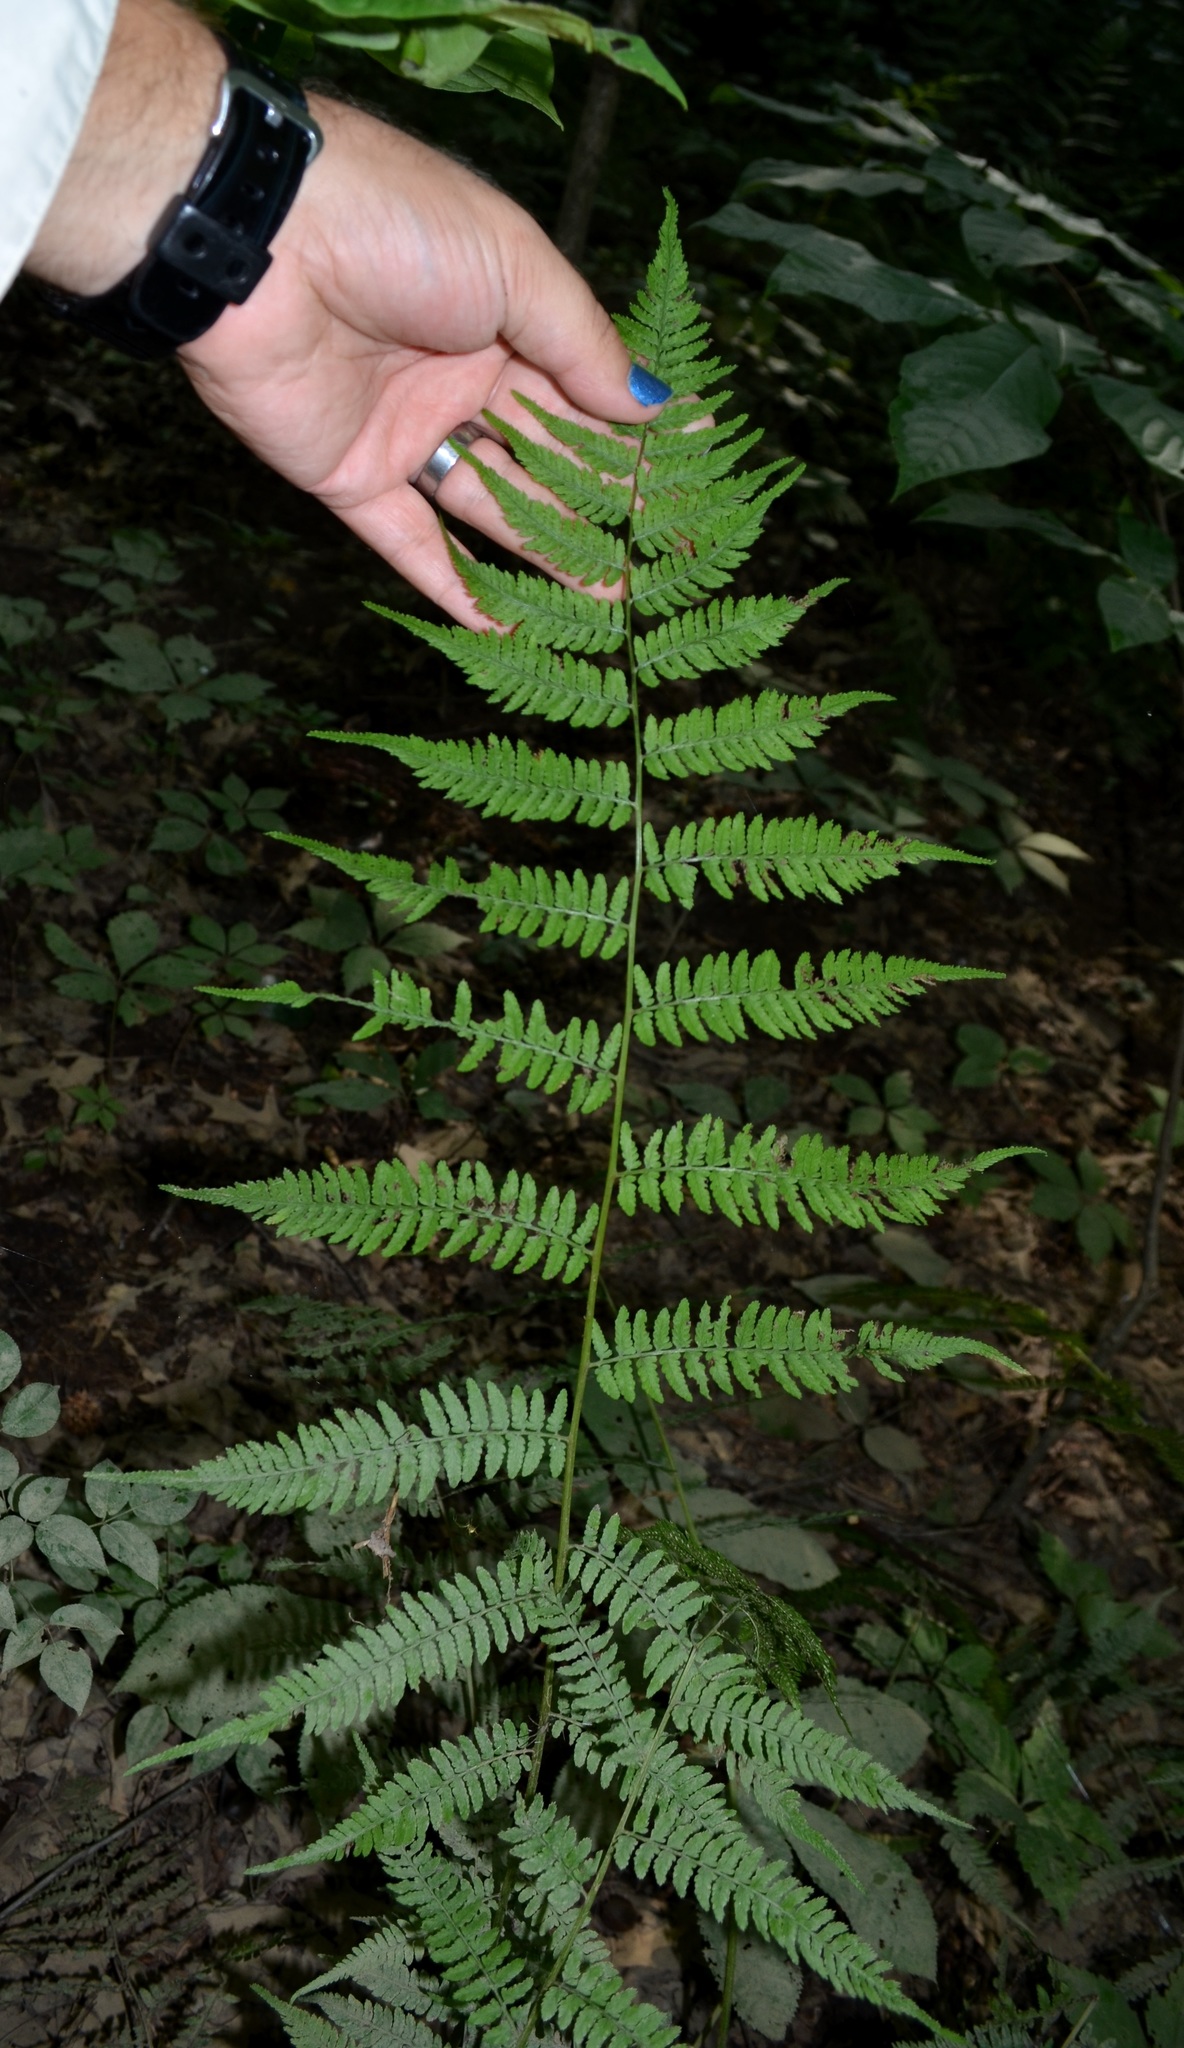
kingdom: Plantae
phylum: Tracheophyta
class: Polypodiopsida
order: Polypodiales
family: Athyriaceae
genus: Athyrium
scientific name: Athyrium asplenioides
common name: Southern lady fern
